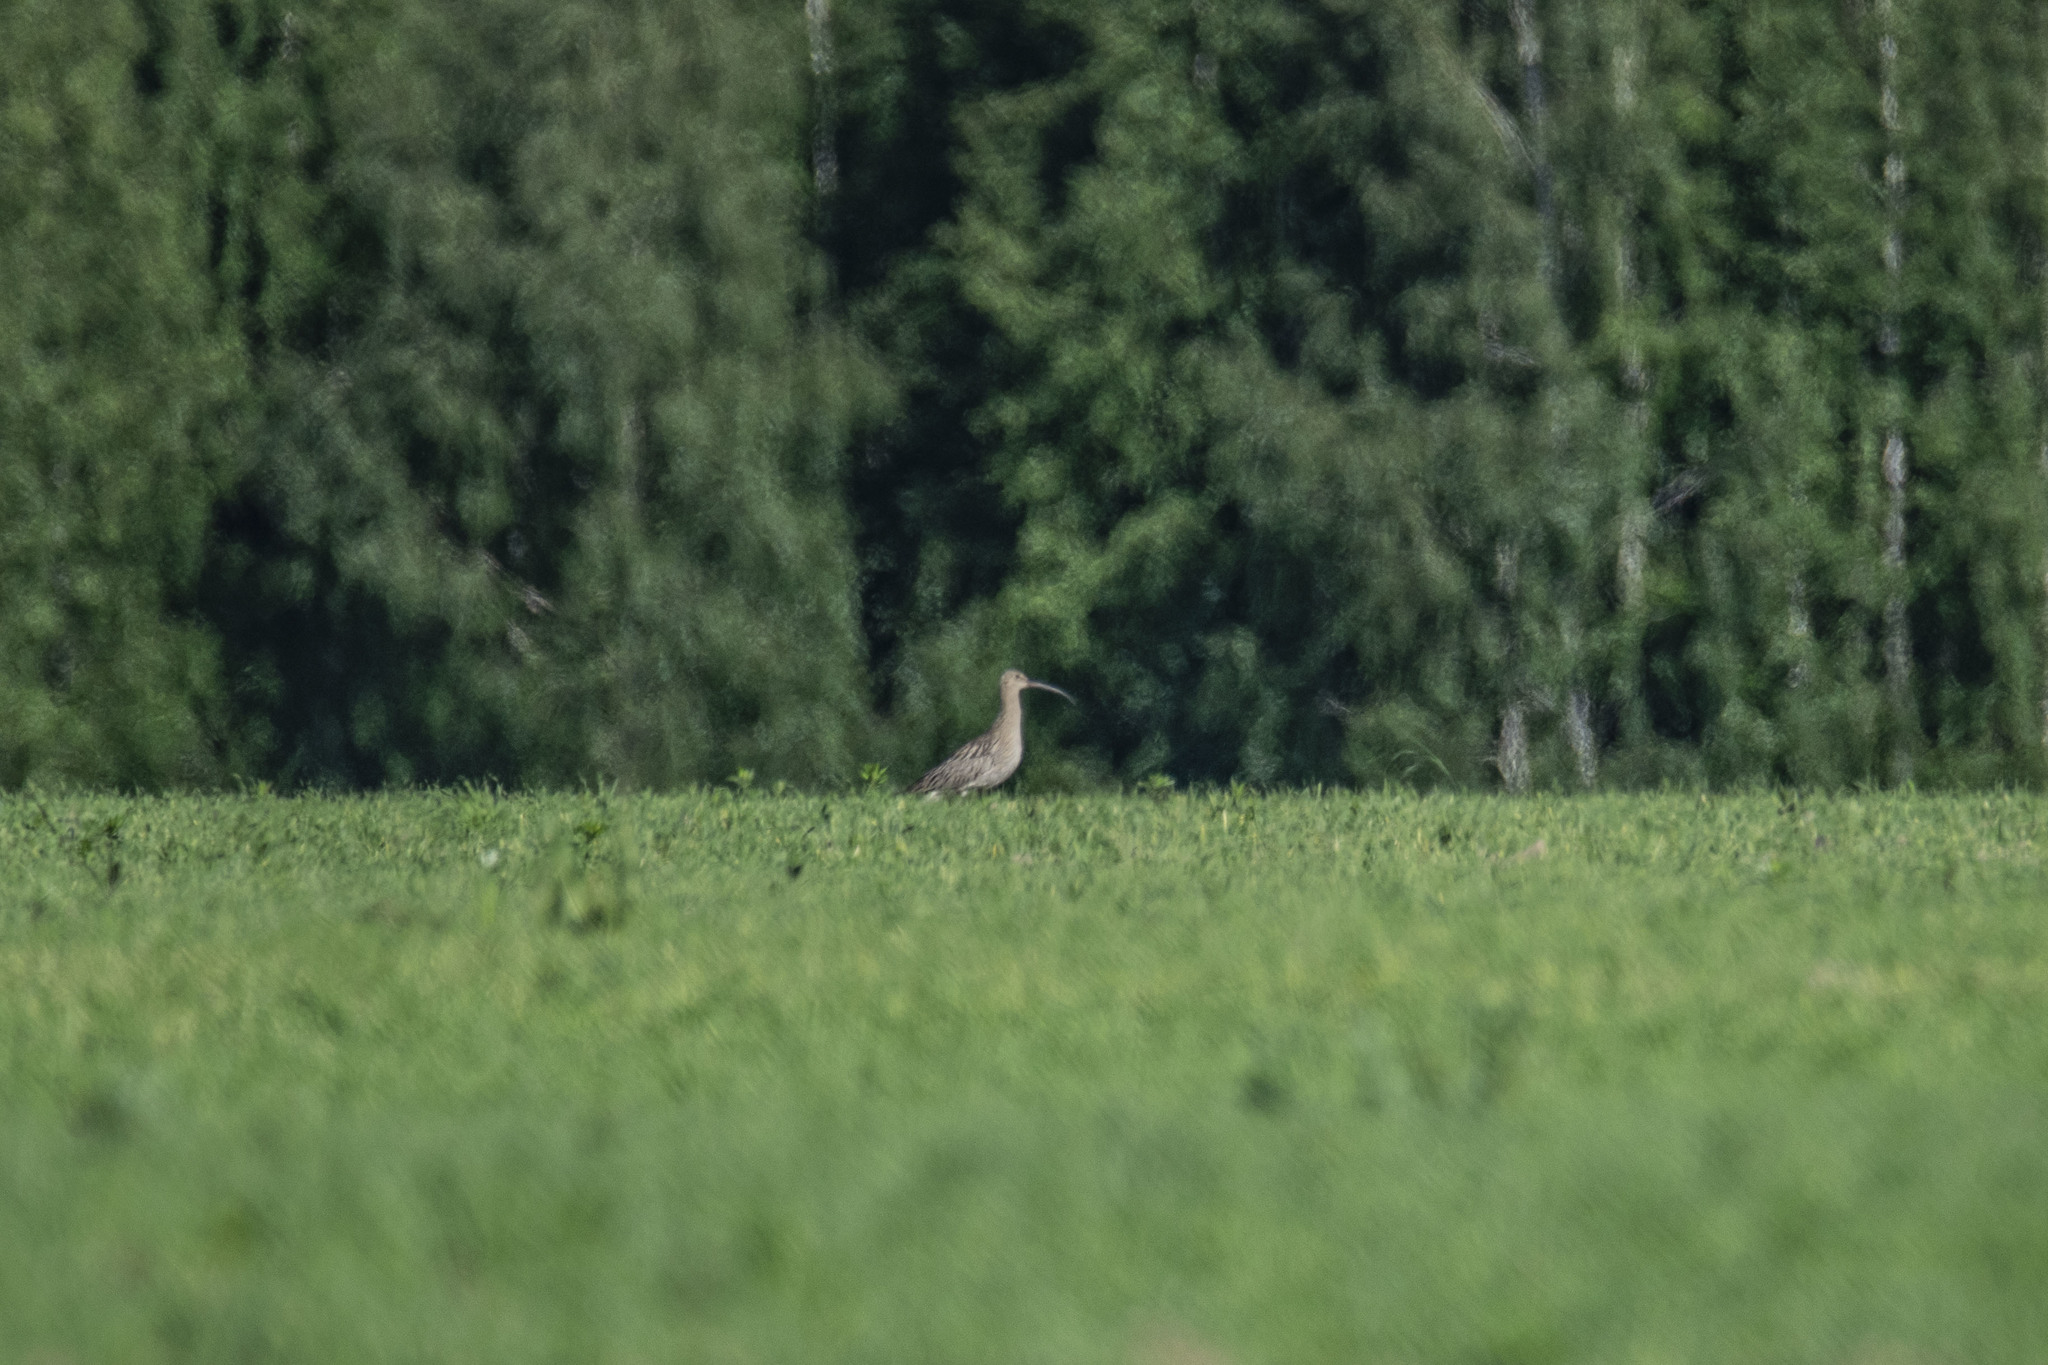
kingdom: Animalia
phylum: Chordata
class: Aves
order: Charadriiformes
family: Scolopacidae
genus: Numenius
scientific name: Numenius arquata
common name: Eurasian curlew
